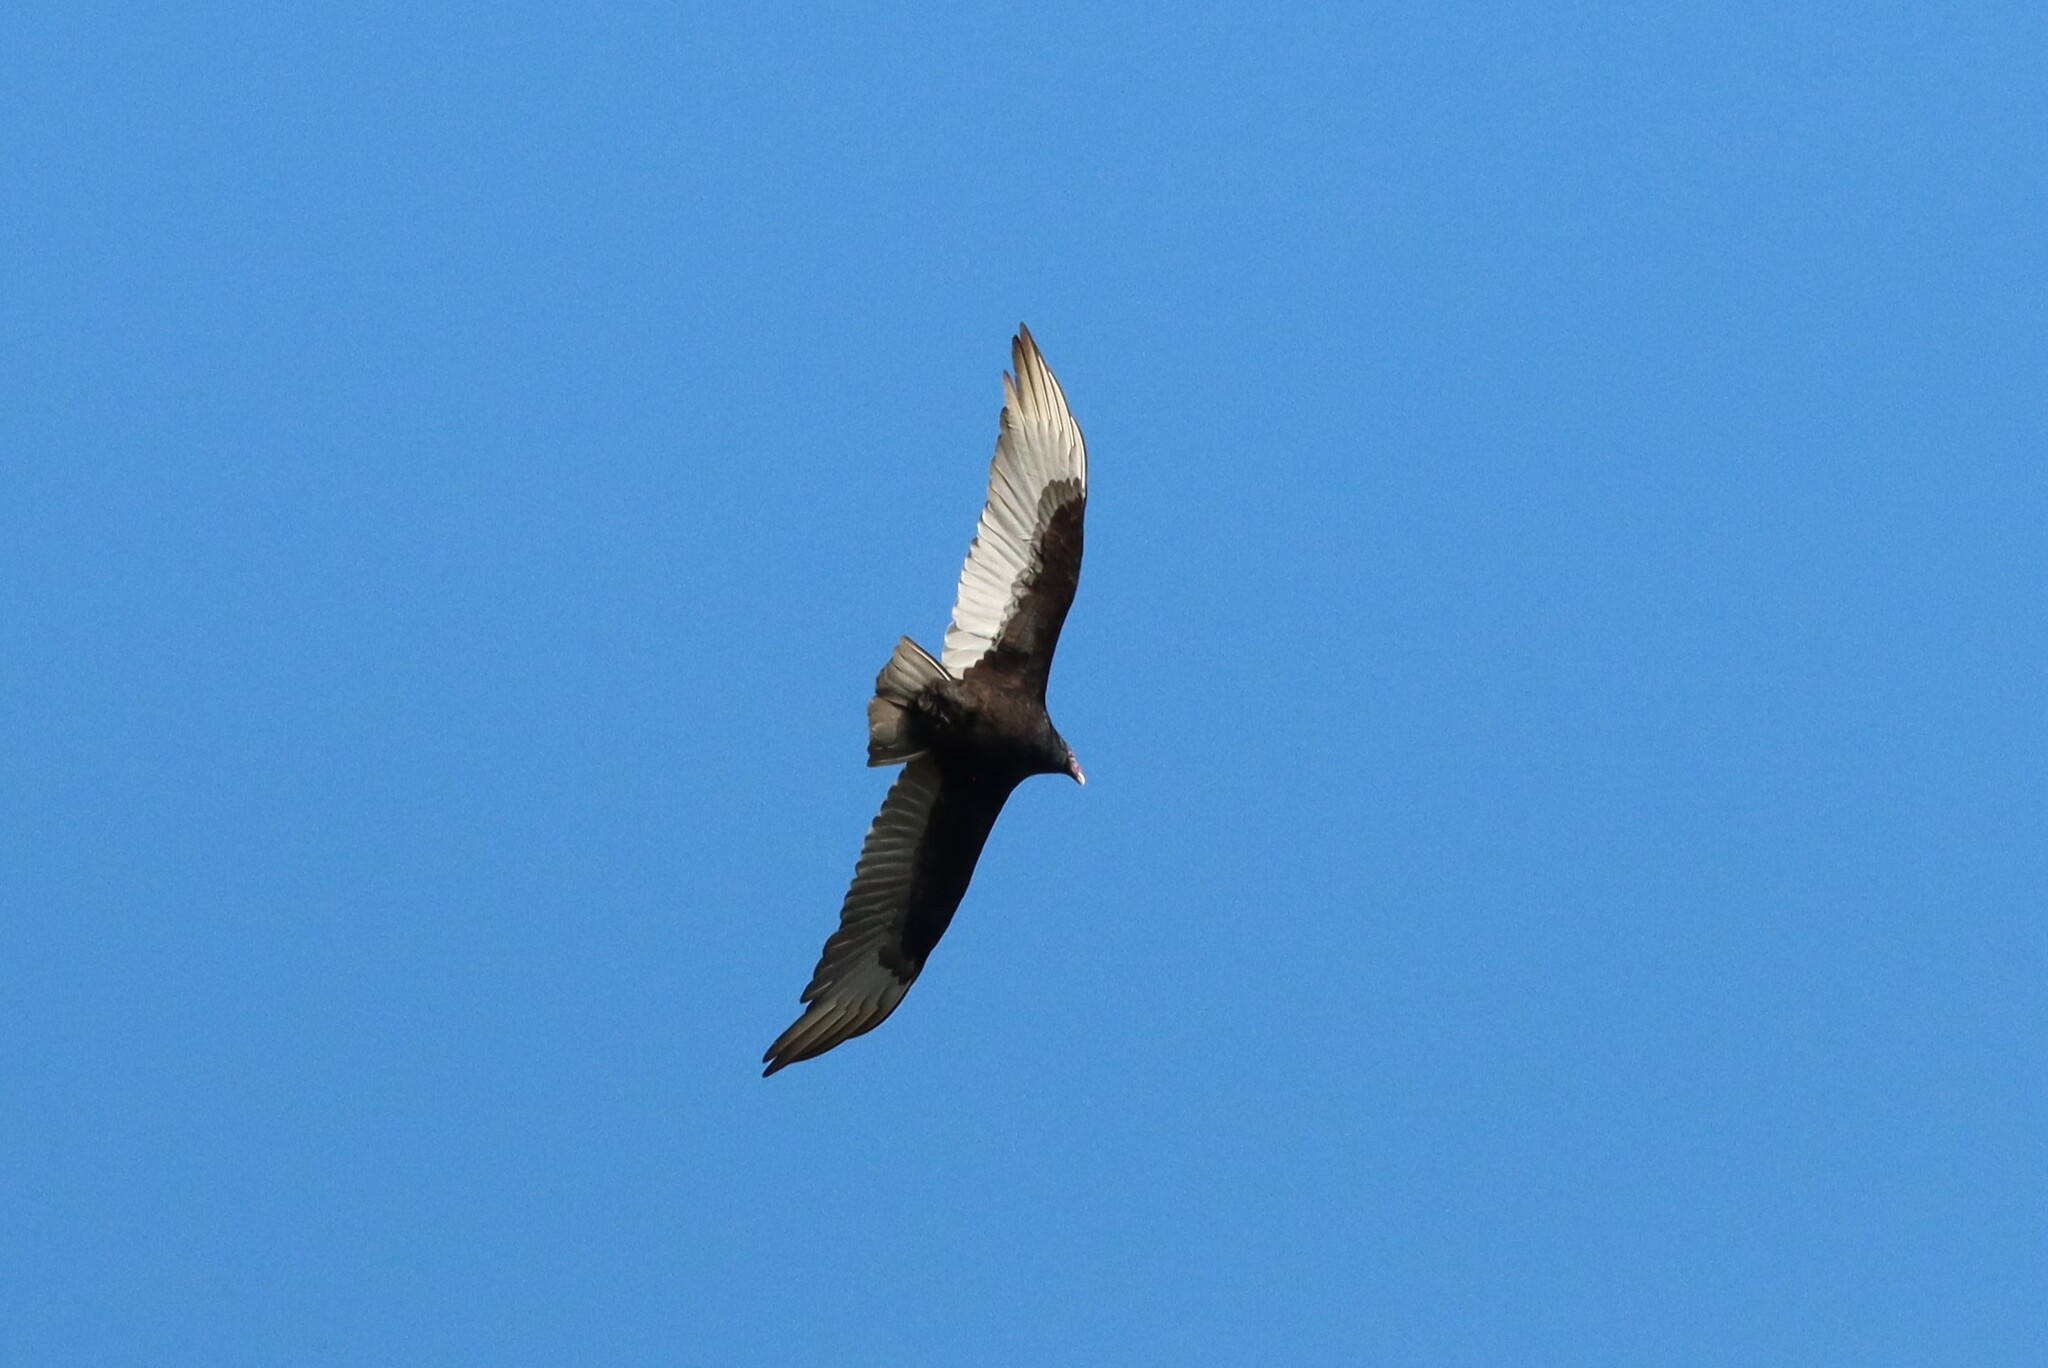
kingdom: Animalia
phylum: Chordata
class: Aves
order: Accipitriformes
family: Cathartidae
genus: Cathartes
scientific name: Cathartes aura
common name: Turkey vulture
